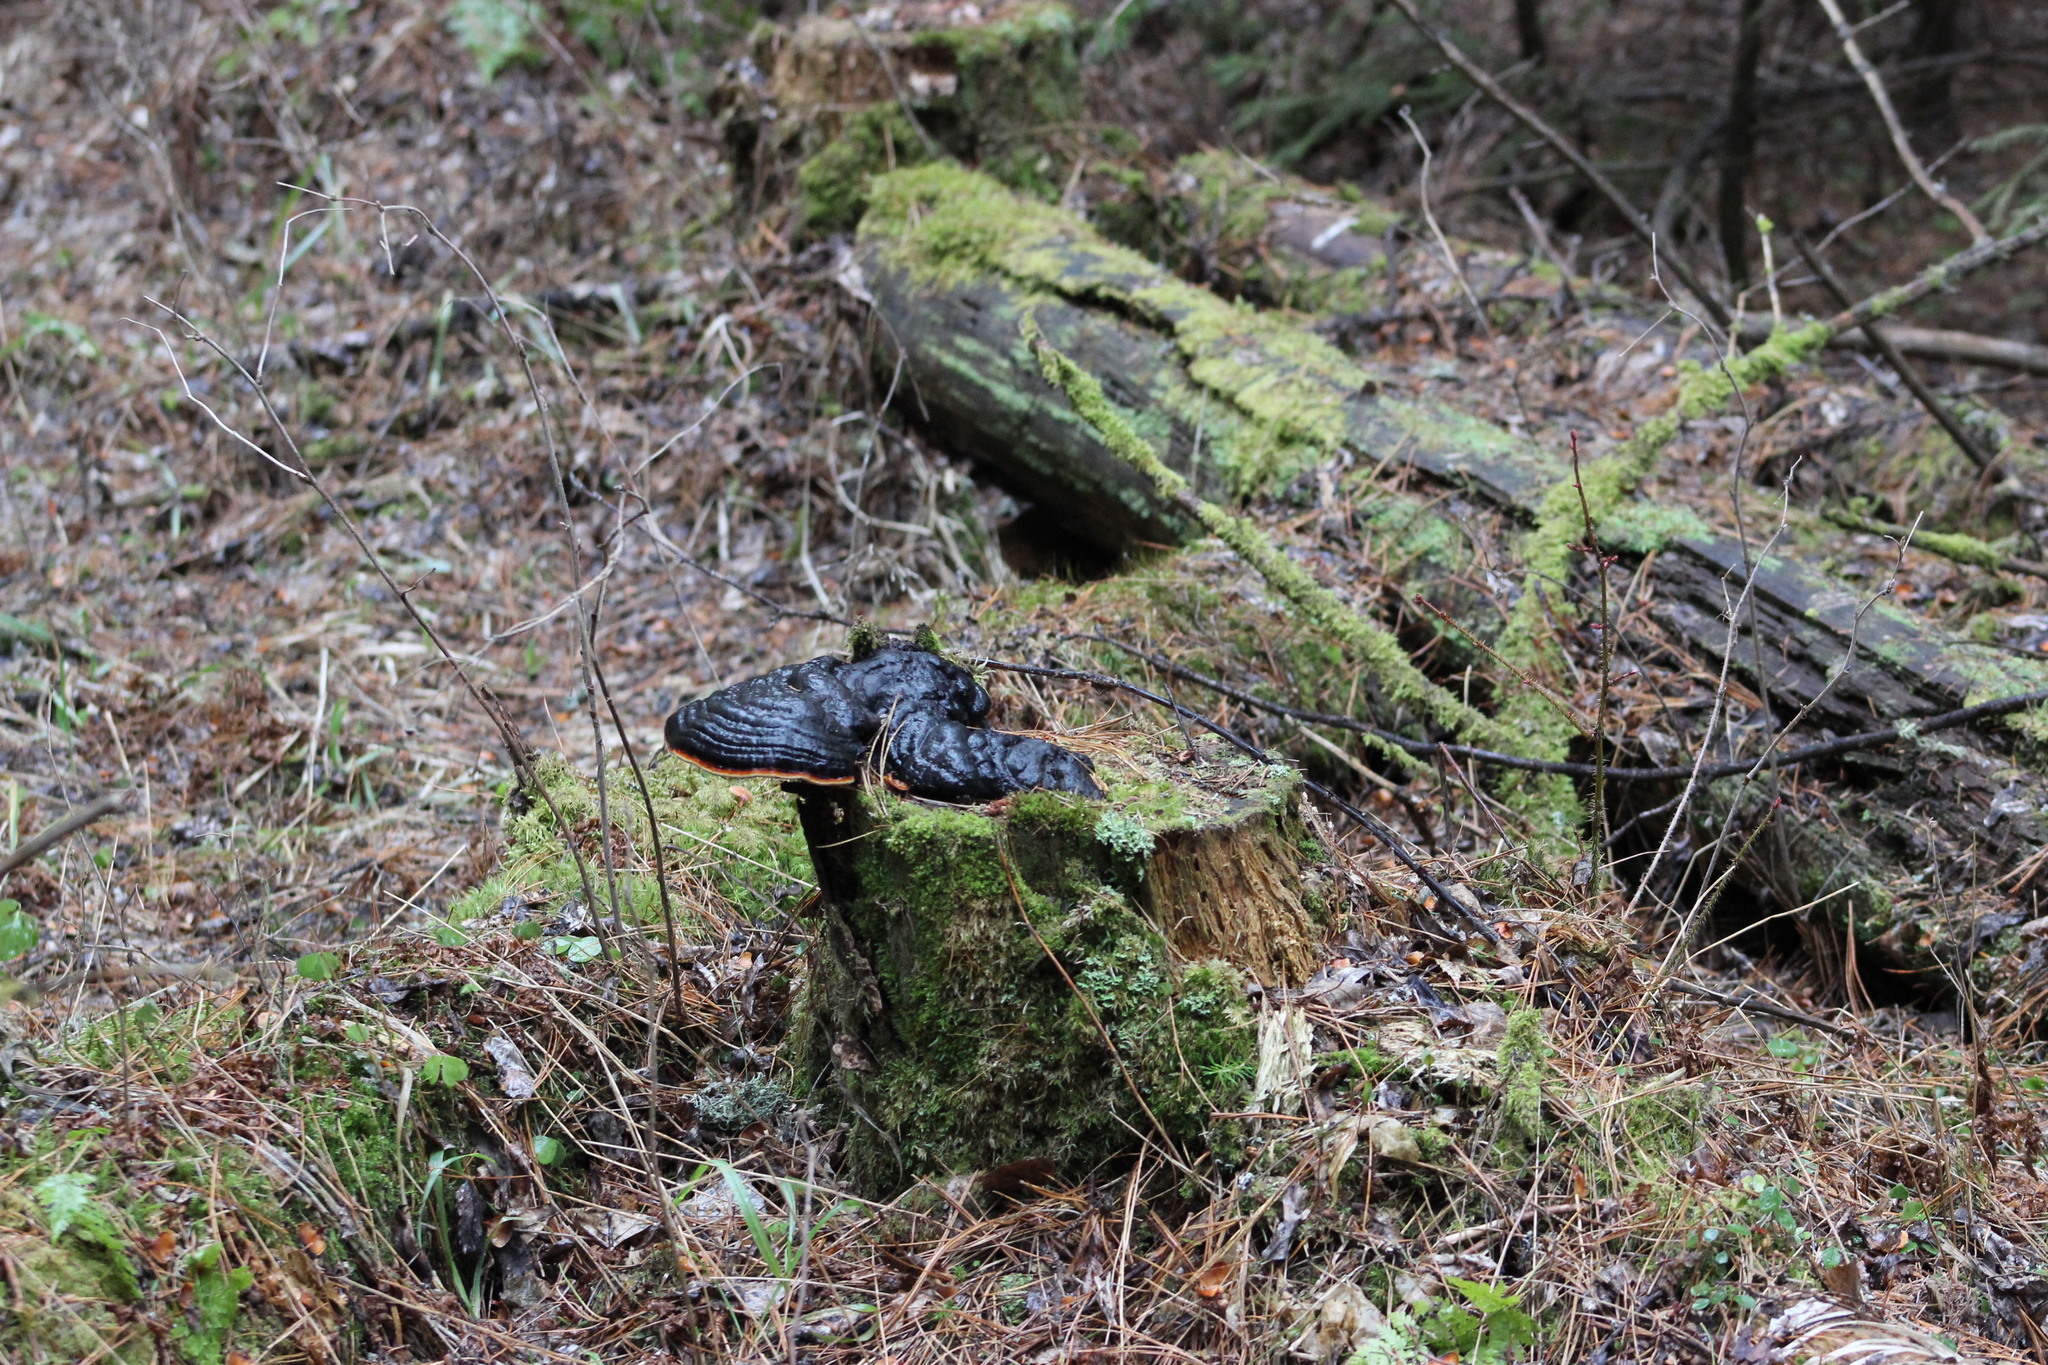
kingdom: Fungi
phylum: Basidiomycota
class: Agaricomycetes
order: Polyporales
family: Fomitopsidaceae
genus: Fomitopsis
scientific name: Fomitopsis pinicola
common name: Red-belted bracket
